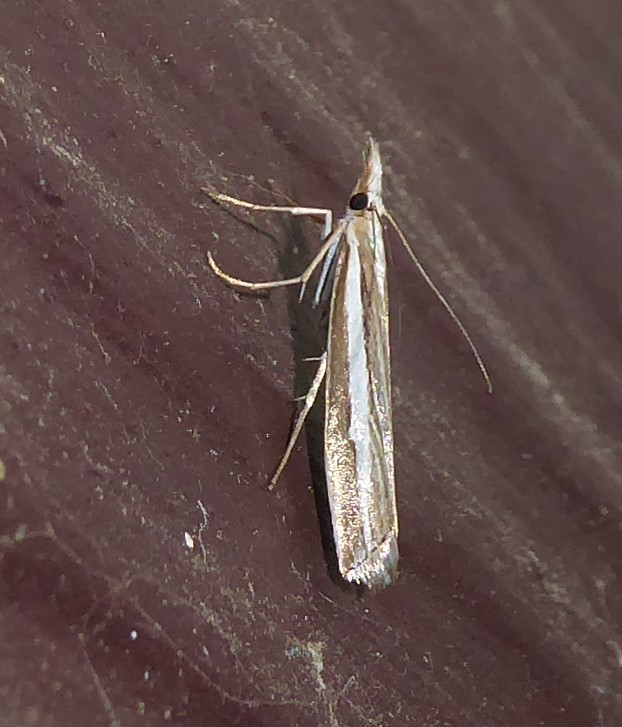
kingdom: Animalia
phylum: Arthropoda
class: Insecta
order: Lepidoptera
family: Crambidae
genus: Orocrambus
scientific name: Orocrambus vittellus
